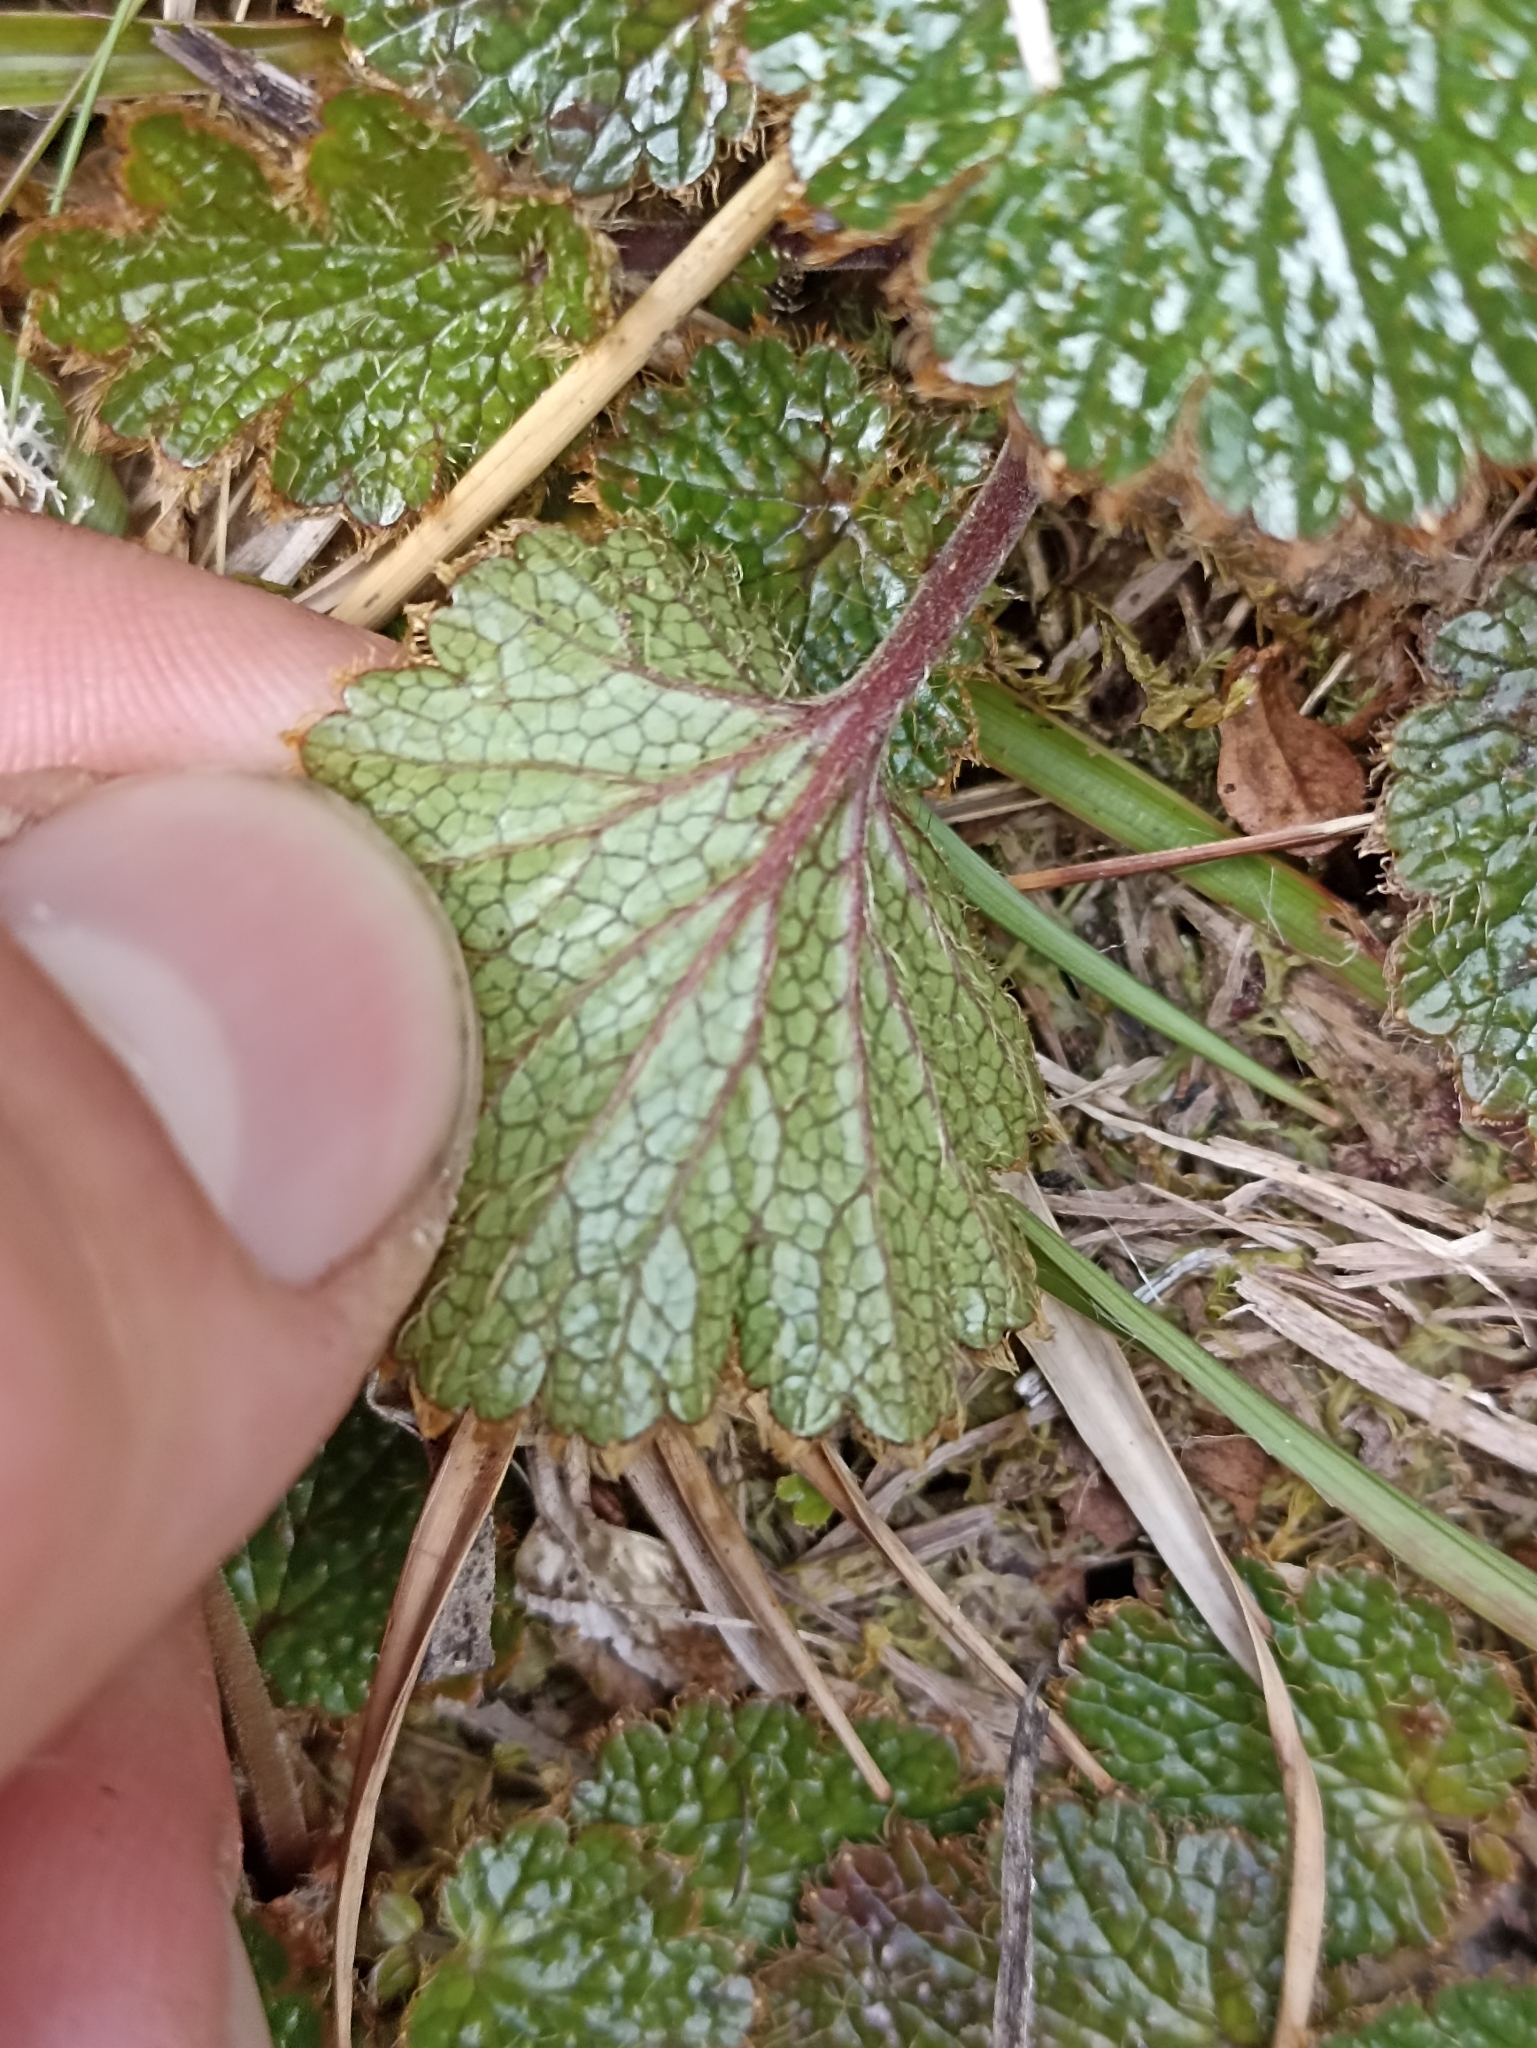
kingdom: Plantae
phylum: Tracheophyta
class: Magnoliopsida
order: Rosales
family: Rosaceae
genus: Geum
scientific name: Geum uniflorum
